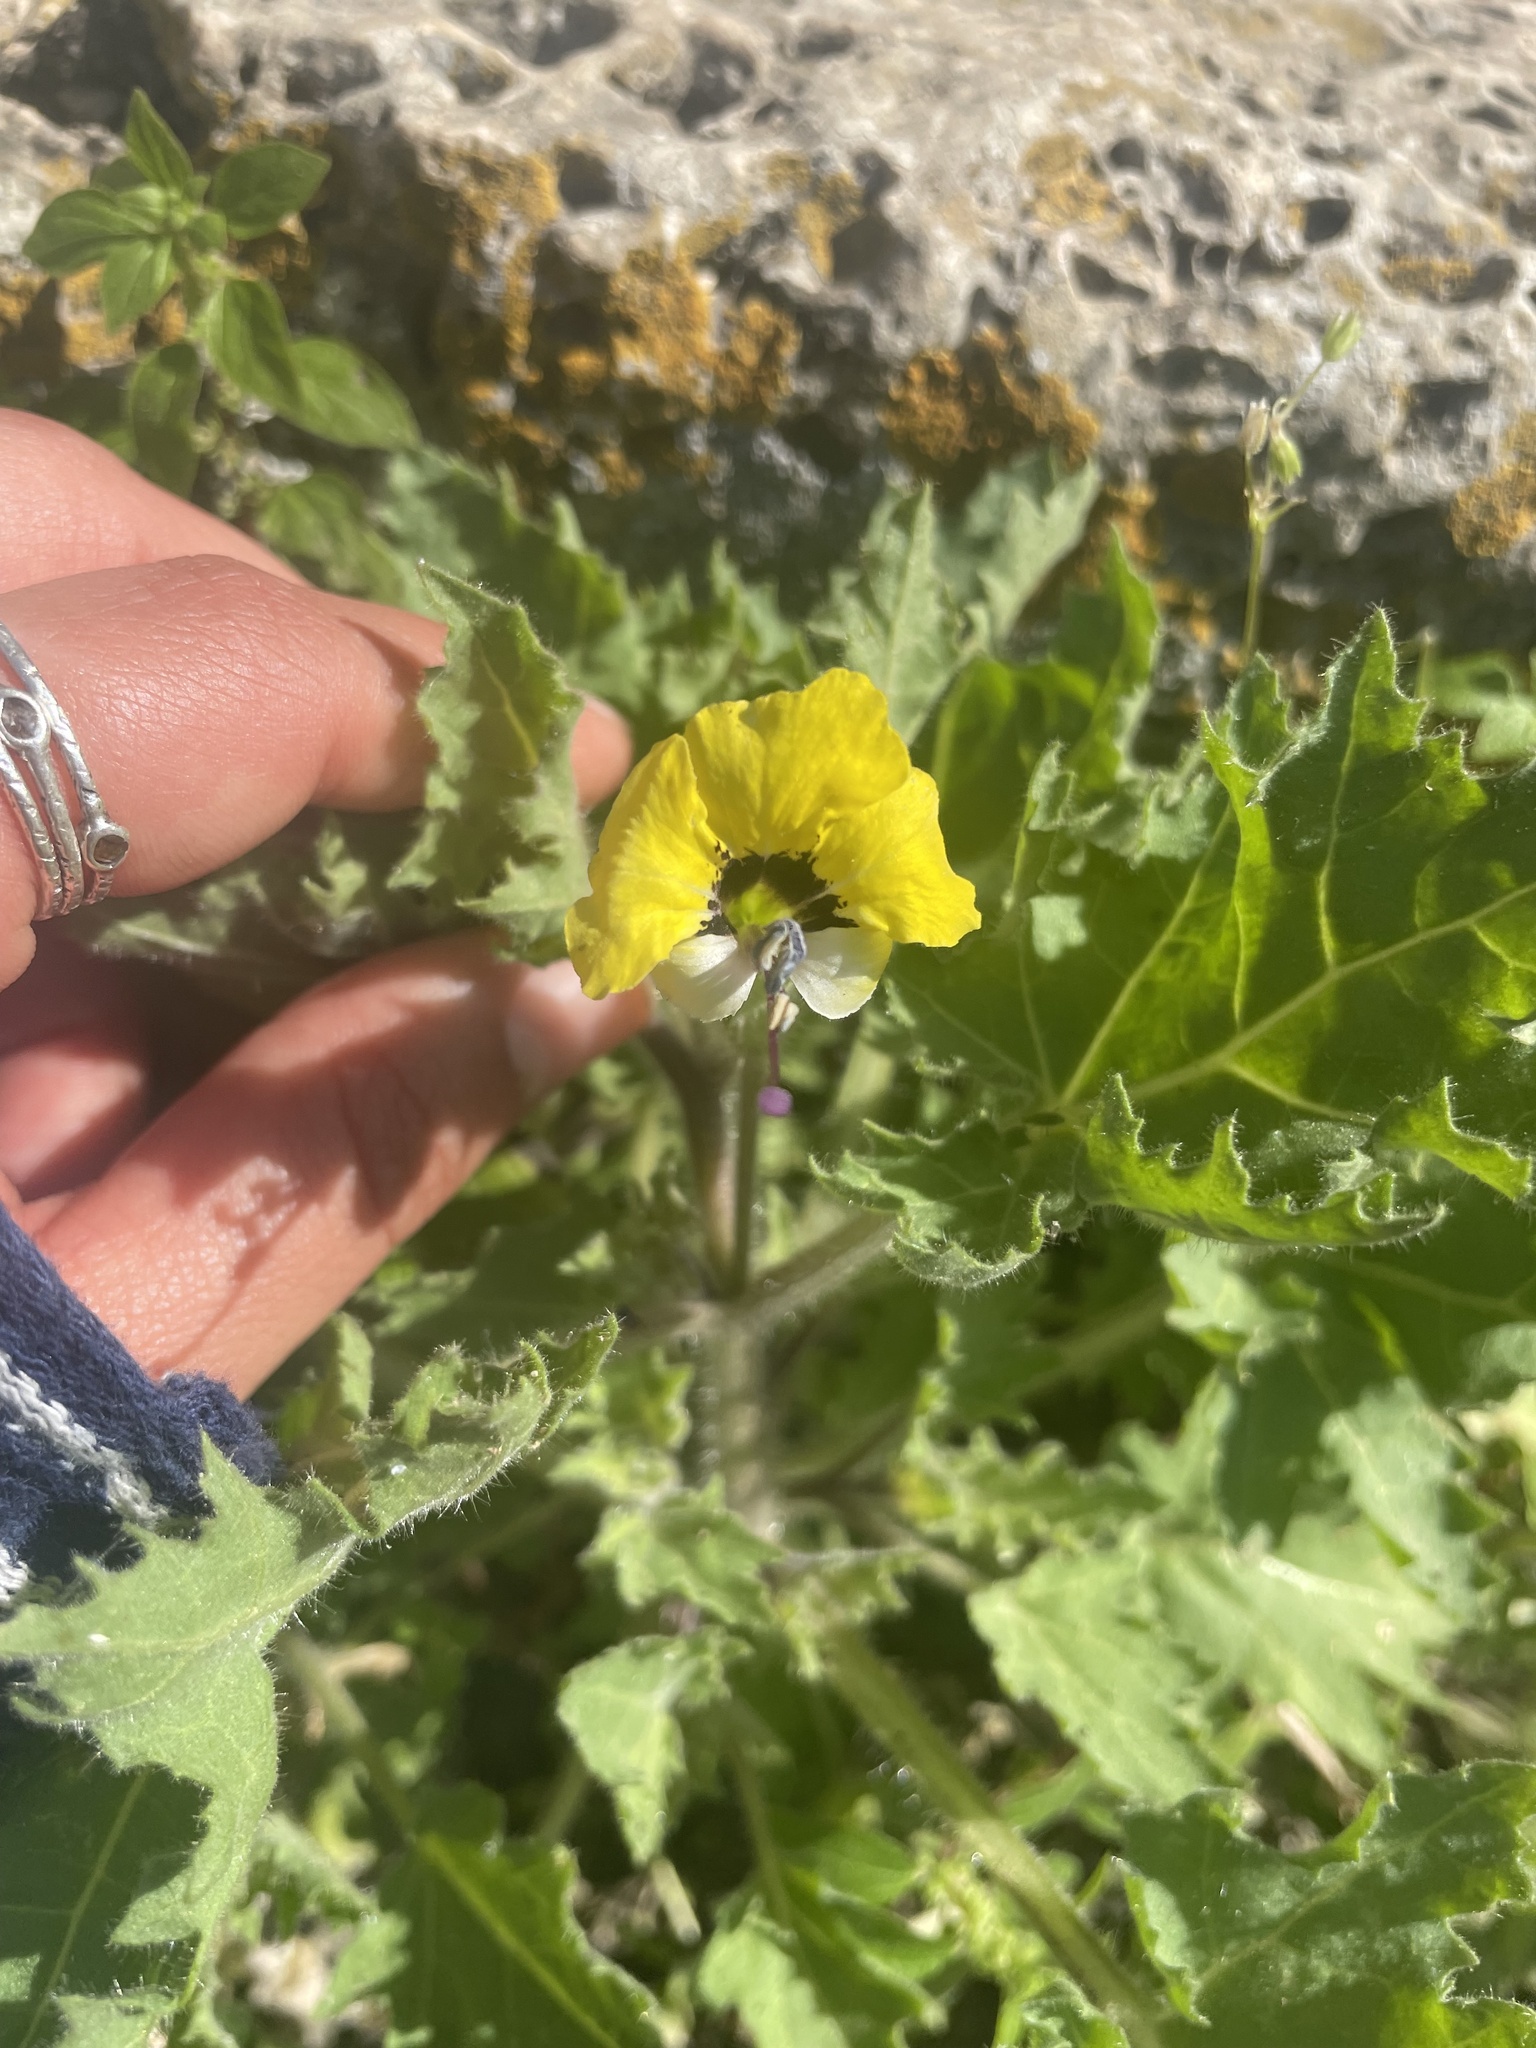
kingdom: Plantae
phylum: Tracheophyta
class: Magnoliopsida
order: Solanales
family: Solanaceae
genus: Hyoscyamus
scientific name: Hyoscyamus aureus
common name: Golden henbane
